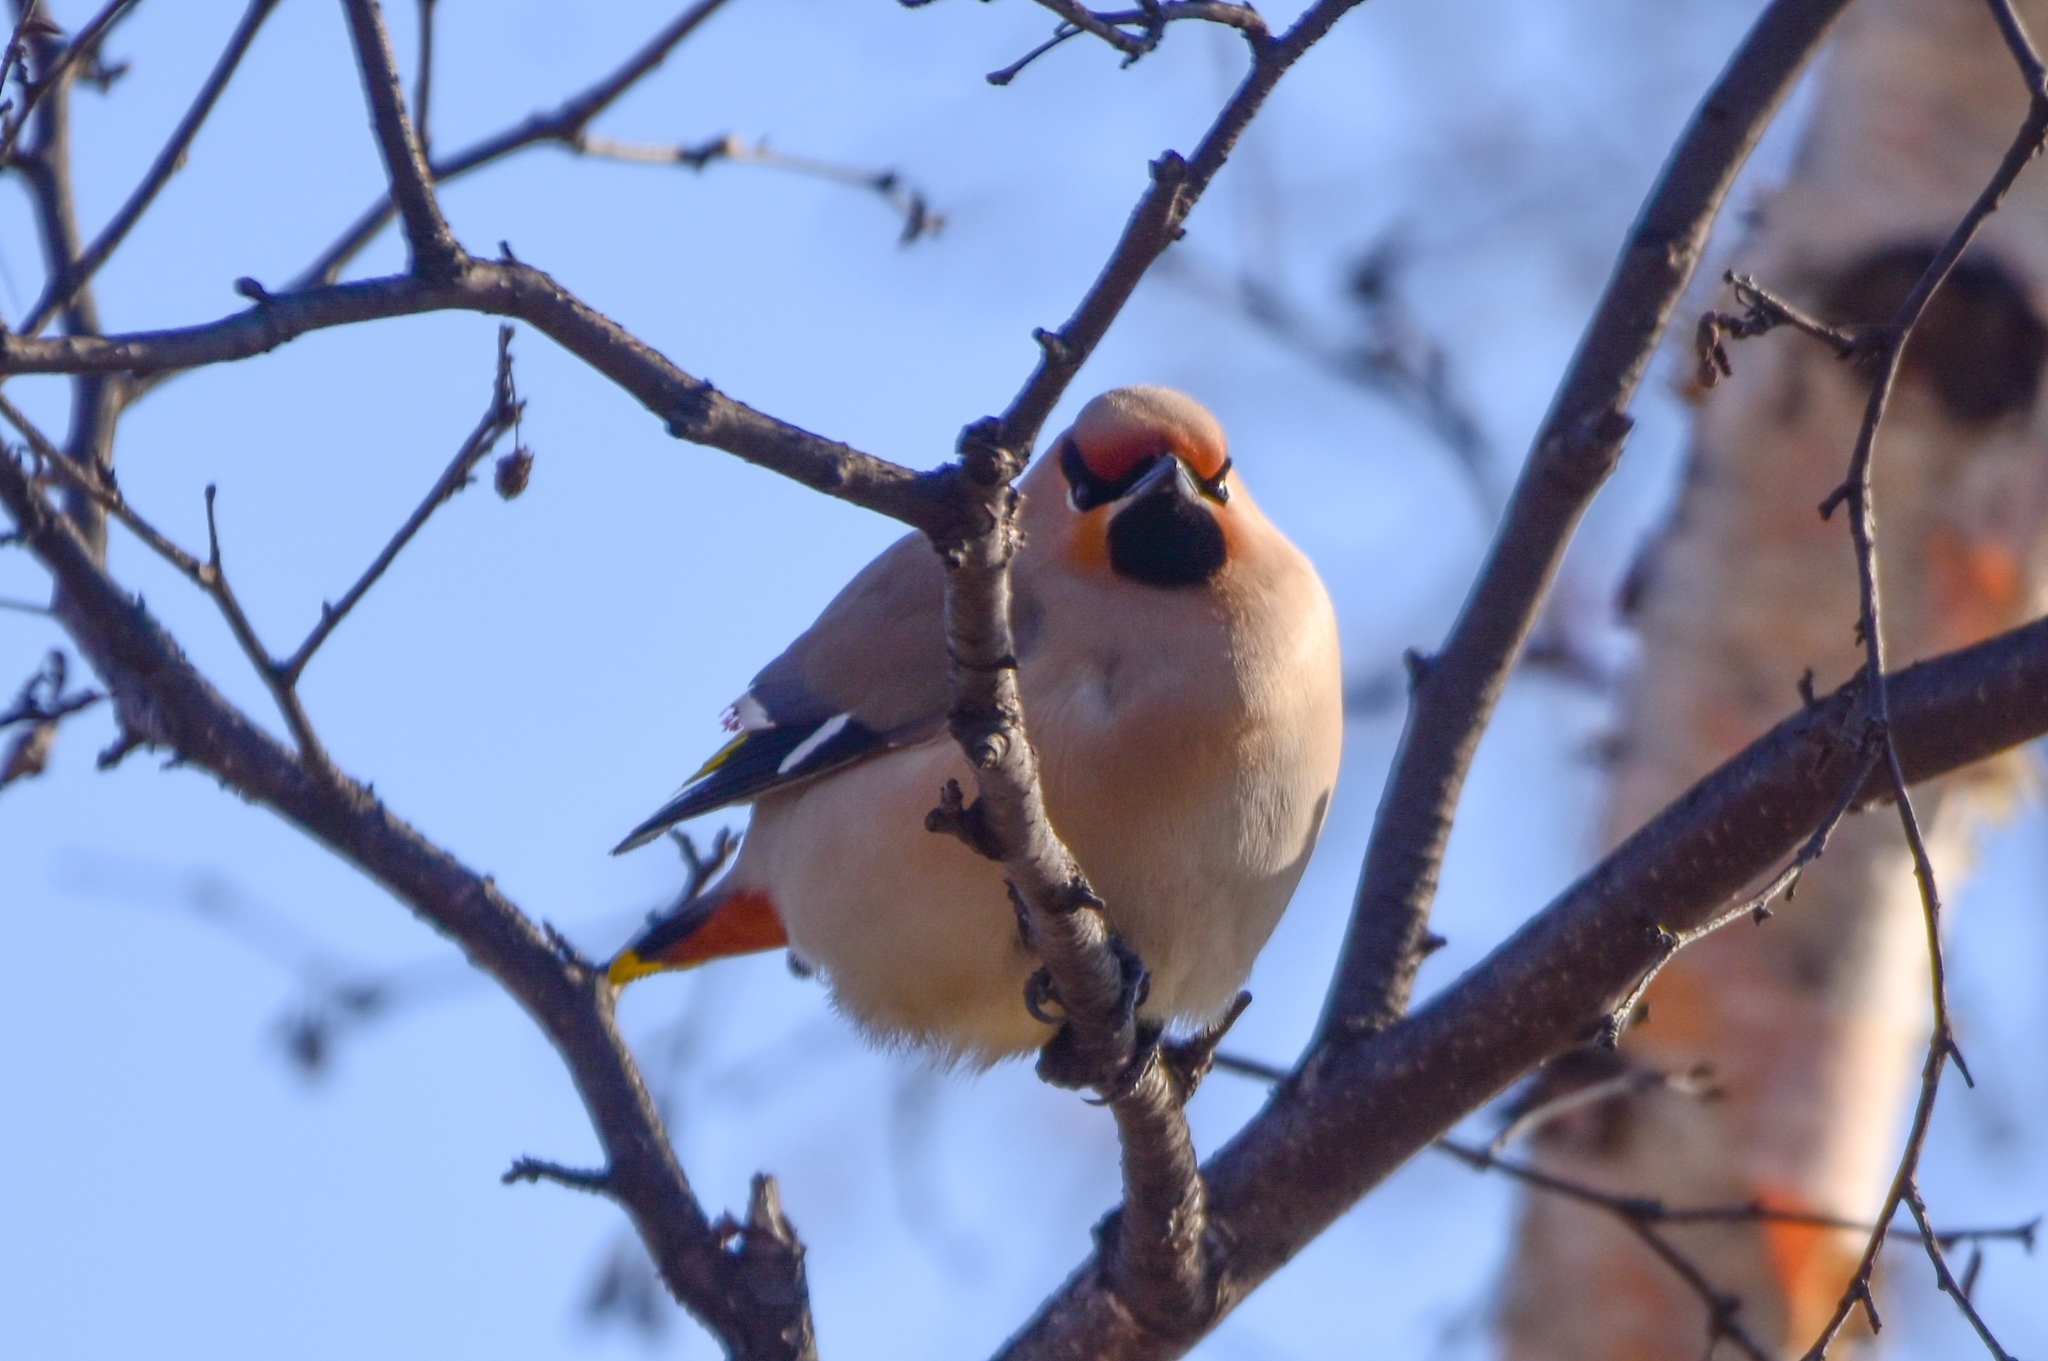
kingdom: Animalia
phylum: Chordata
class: Aves
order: Passeriformes
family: Bombycillidae
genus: Bombycilla
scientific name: Bombycilla garrulus
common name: Bohemian waxwing
